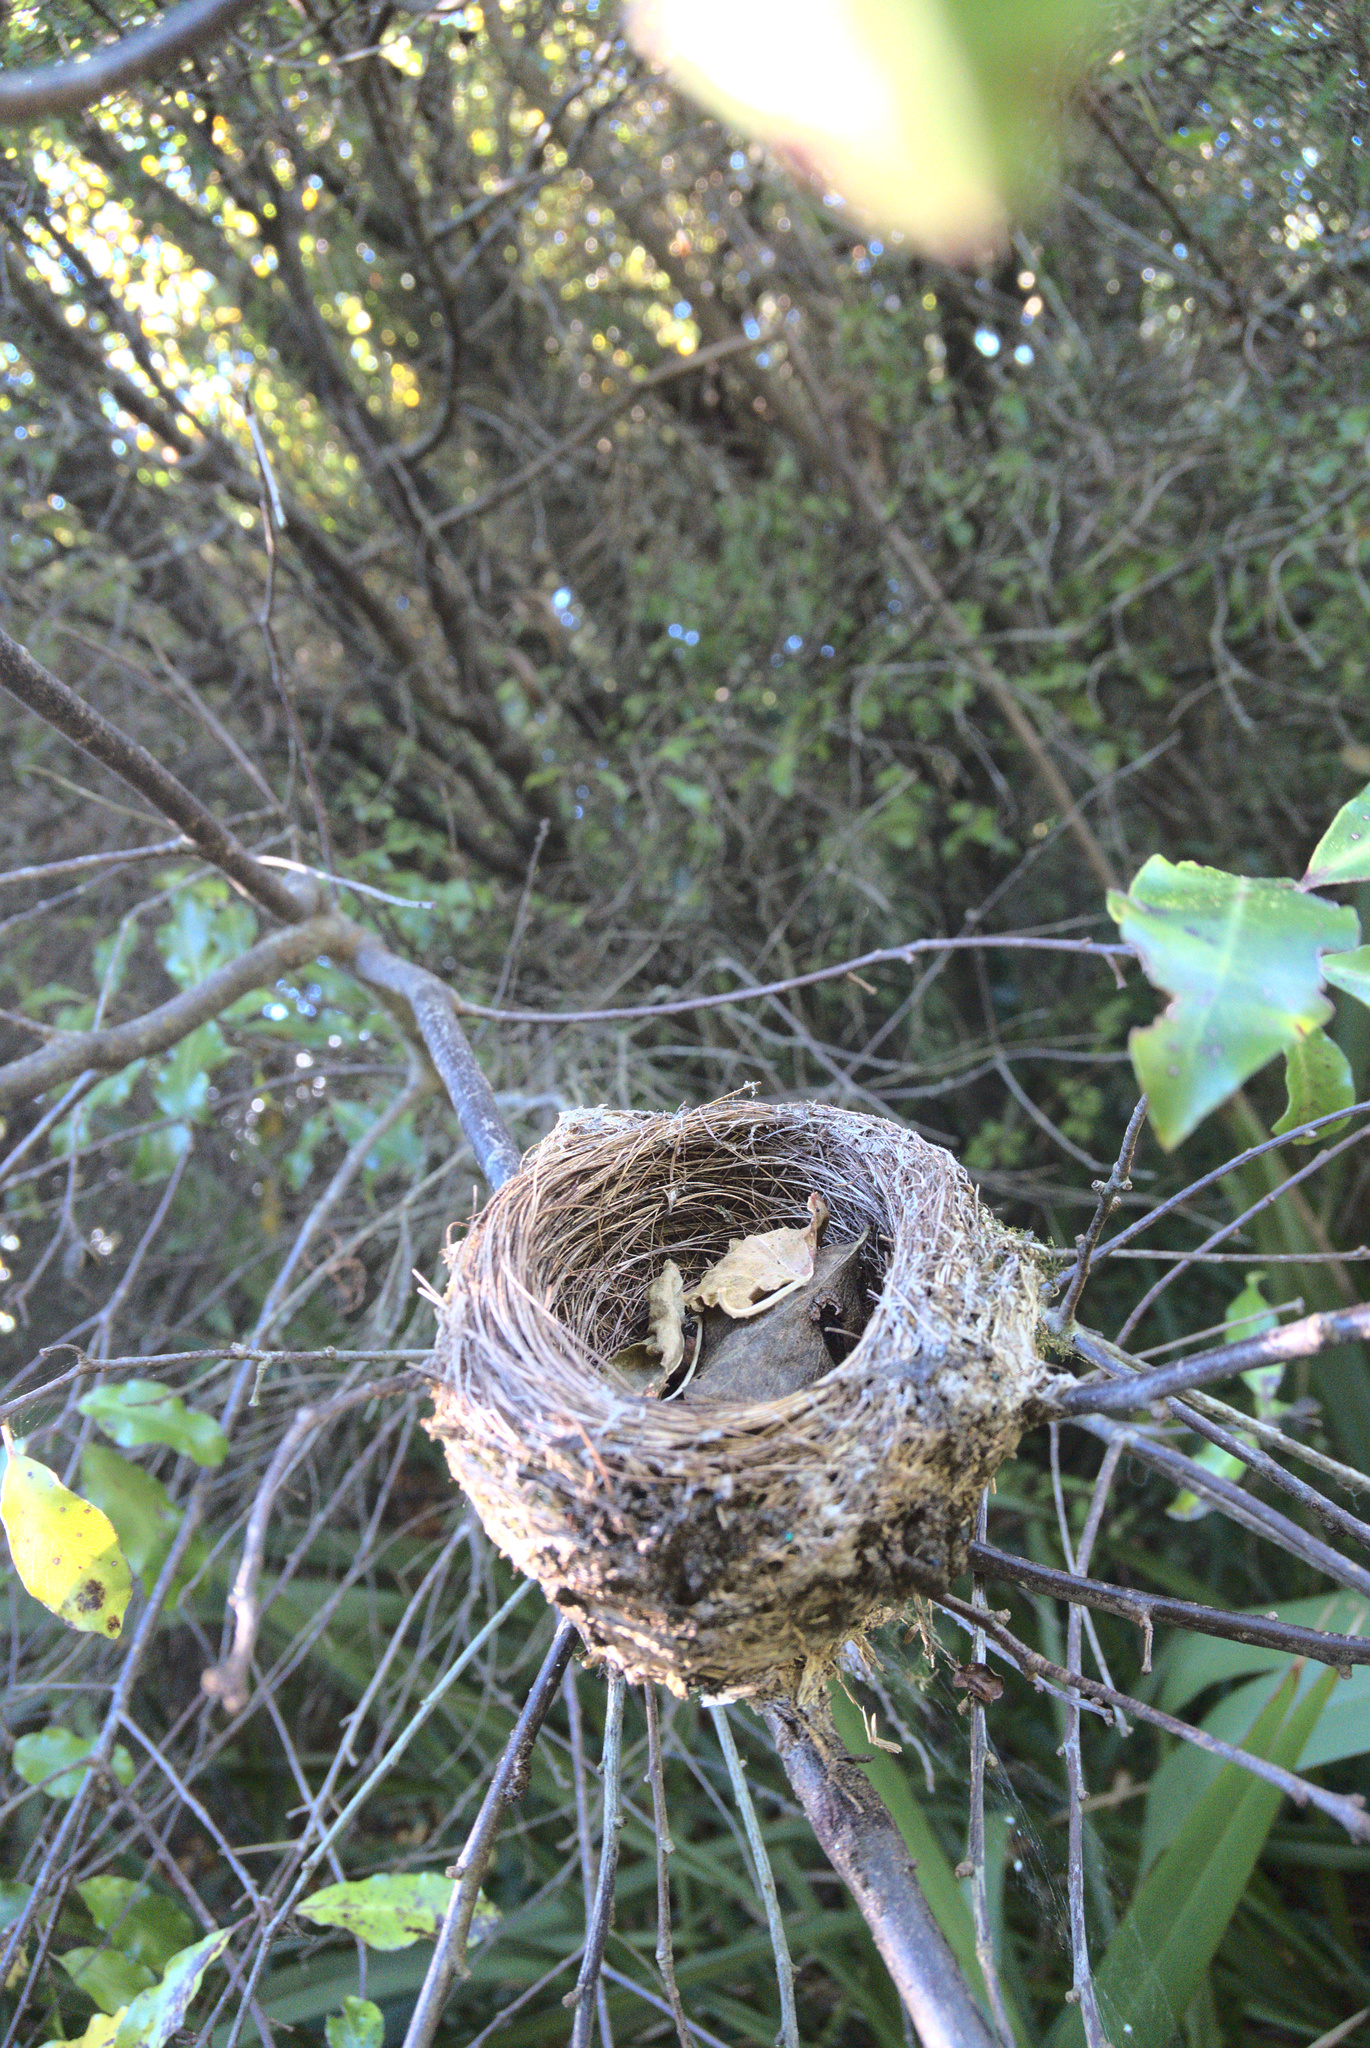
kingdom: Animalia
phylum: Chordata
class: Aves
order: Passeriformes
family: Rhipiduridae
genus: Rhipidura
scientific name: Rhipidura fuliginosa
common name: New zealand fantail
